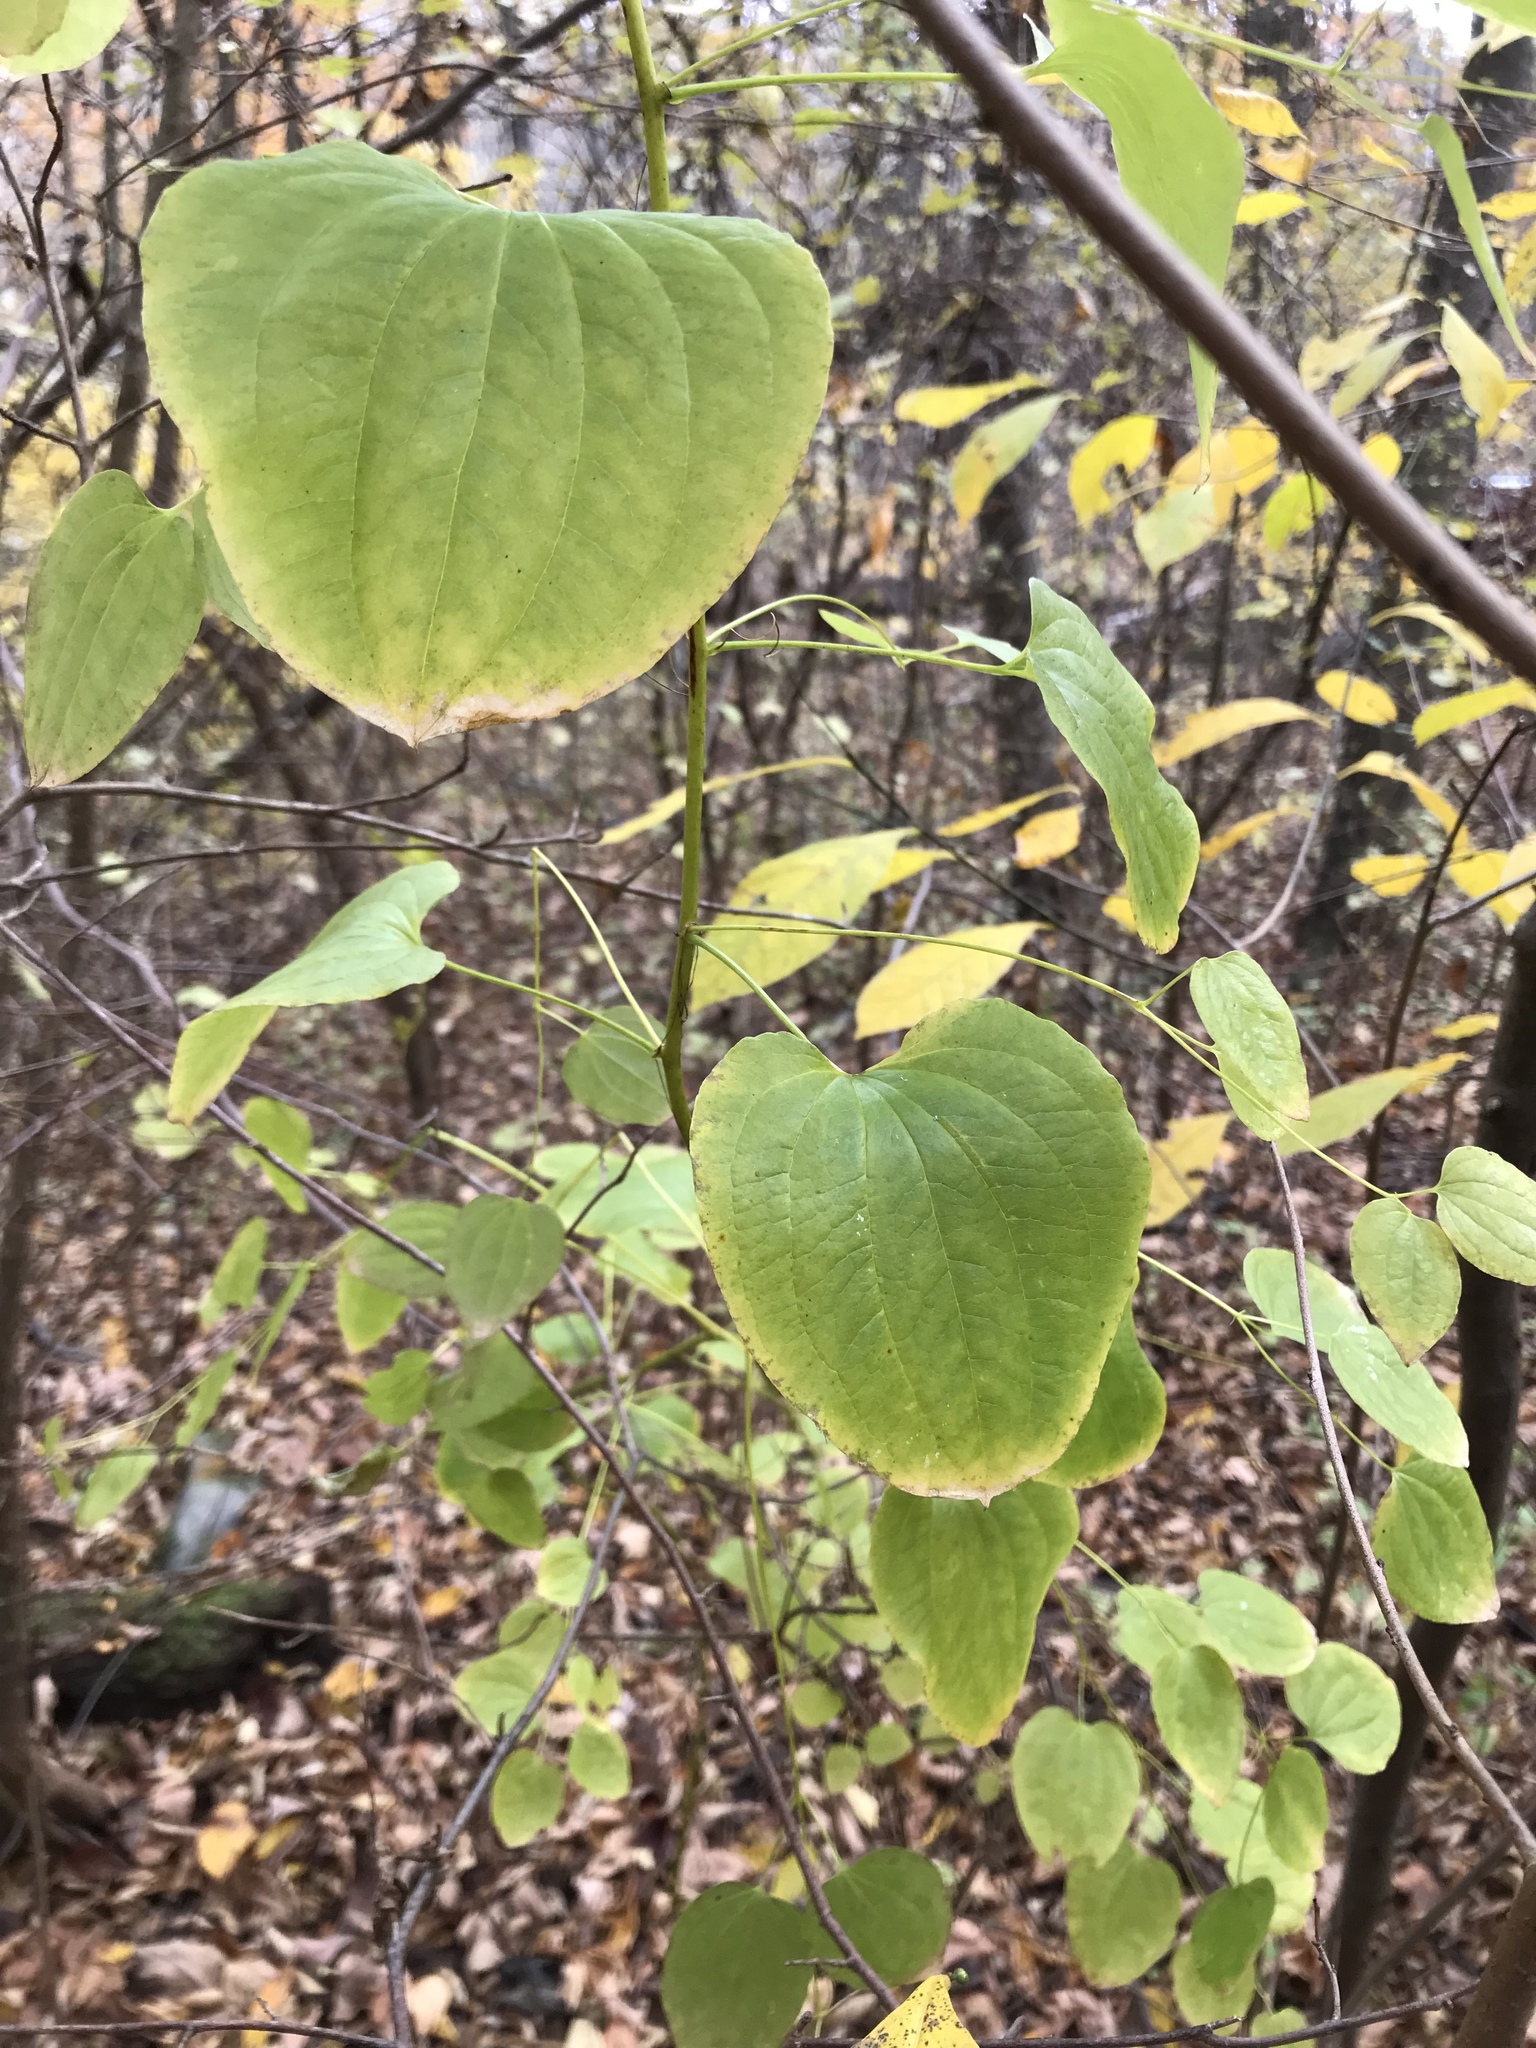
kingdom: Plantae
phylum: Tracheophyta
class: Liliopsida
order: Liliales
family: Smilacaceae
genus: Smilax
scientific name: Smilax herbacea
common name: Jacob's-ladder
